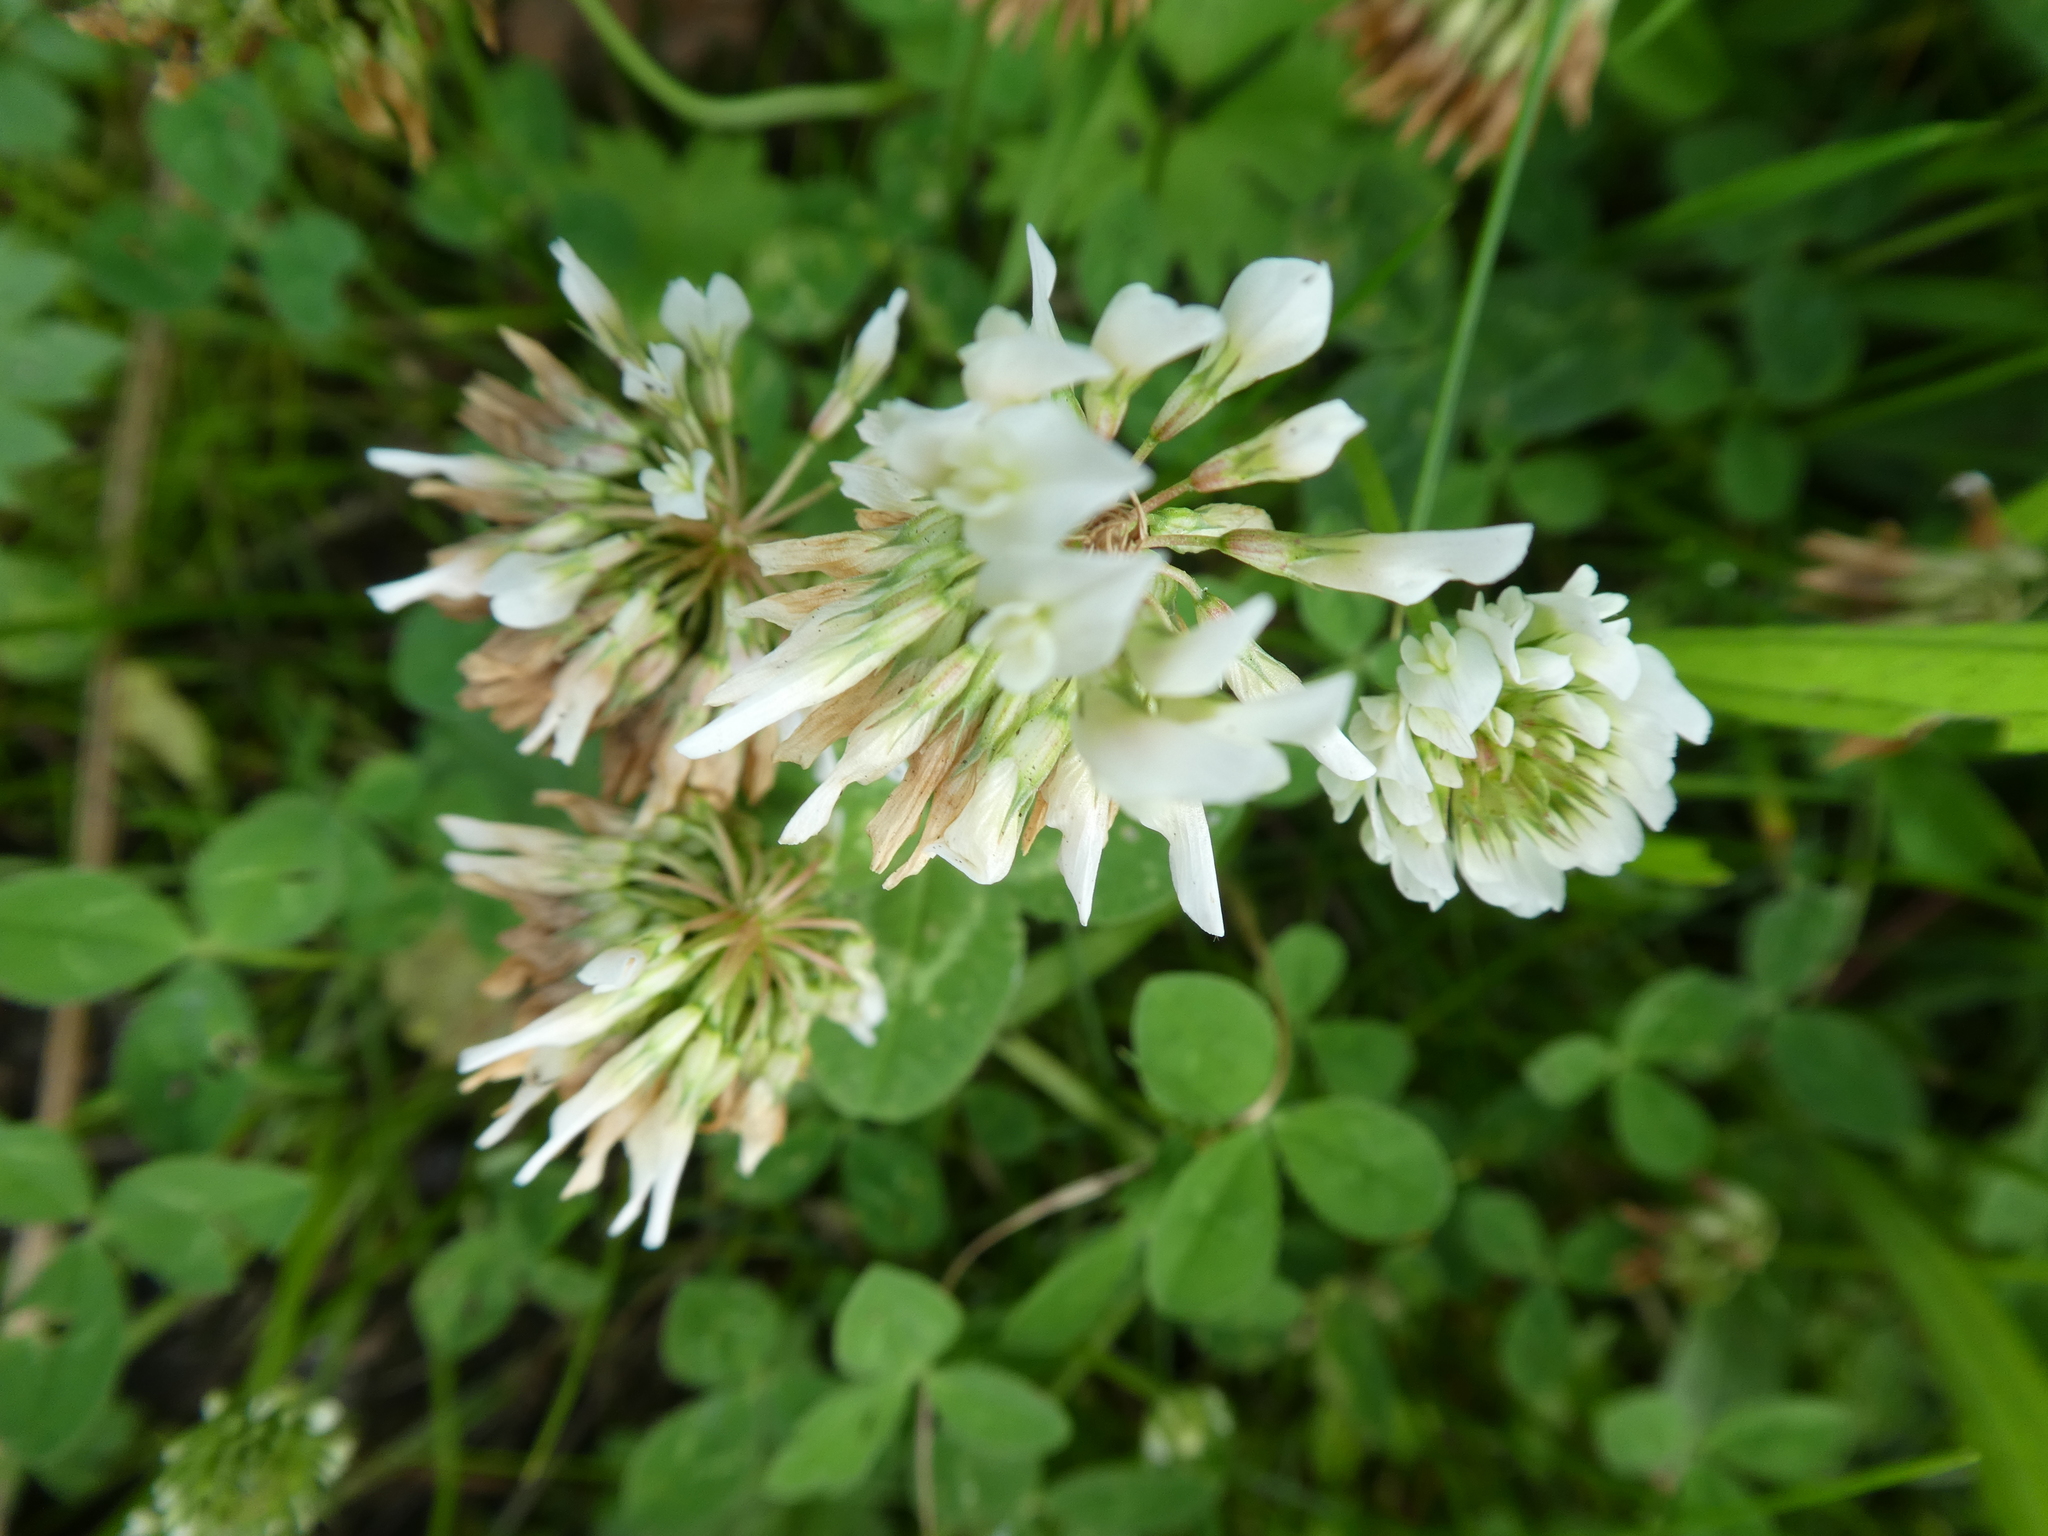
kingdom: Plantae
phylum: Tracheophyta
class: Magnoliopsida
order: Fabales
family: Fabaceae
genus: Trifolium
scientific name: Trifolium repens
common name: White clover
